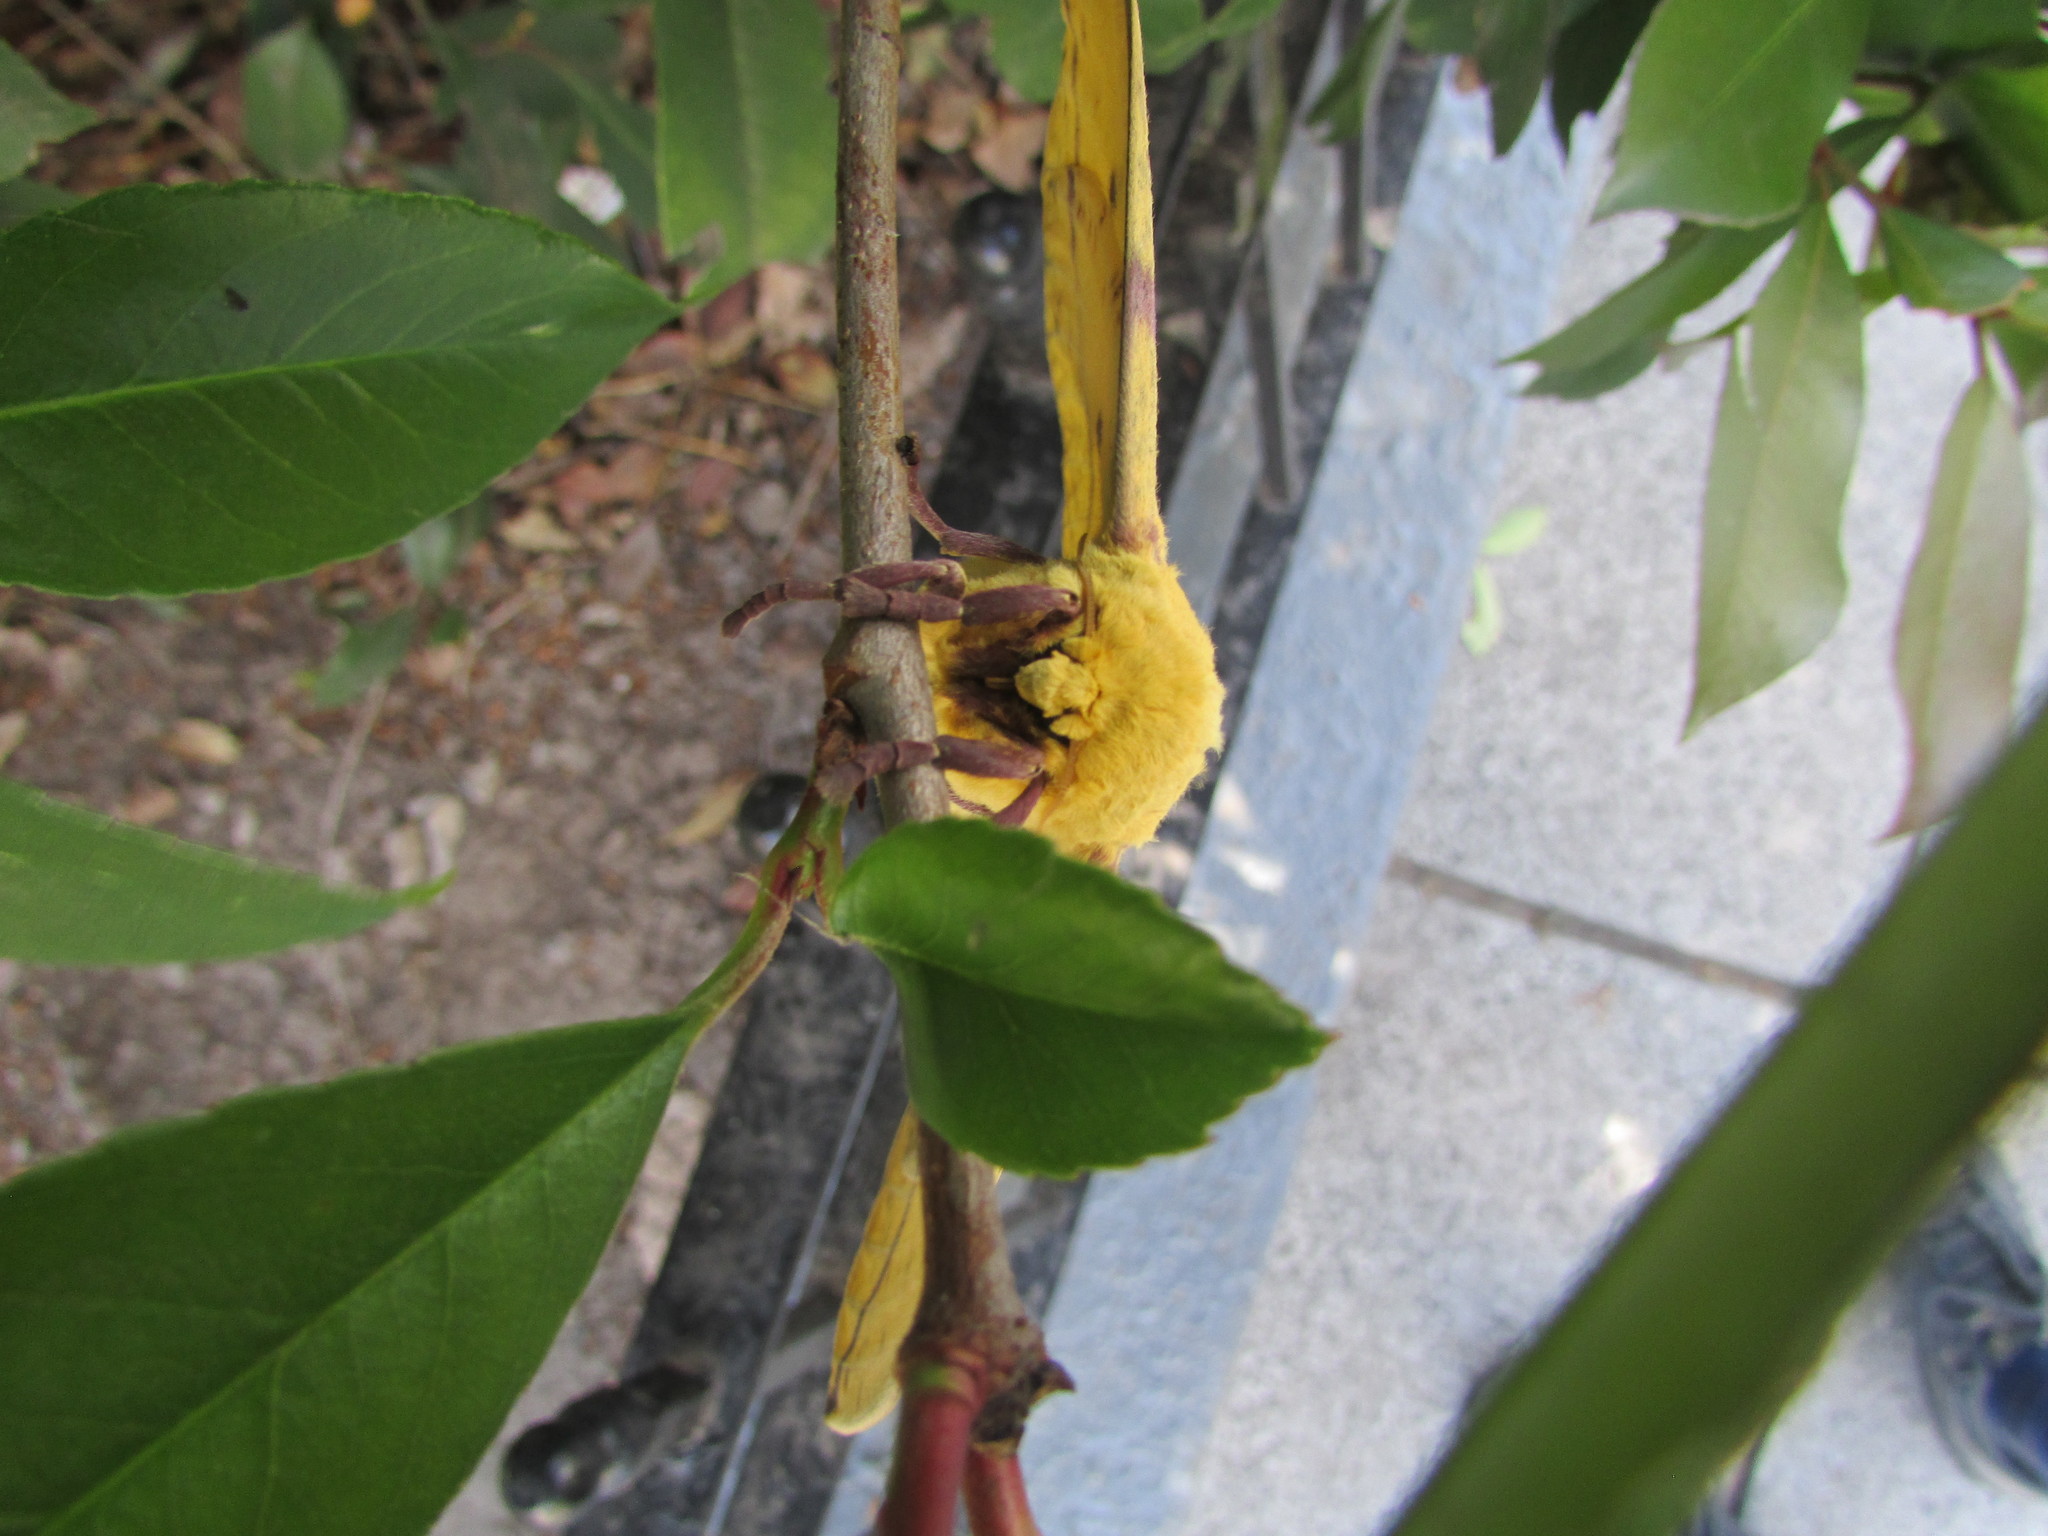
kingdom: Animalia
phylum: Arthropoda
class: Insecta
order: Lepidoptera
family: Saturniidae
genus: Eacles
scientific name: Eacles imperialis
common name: Imperial moth
